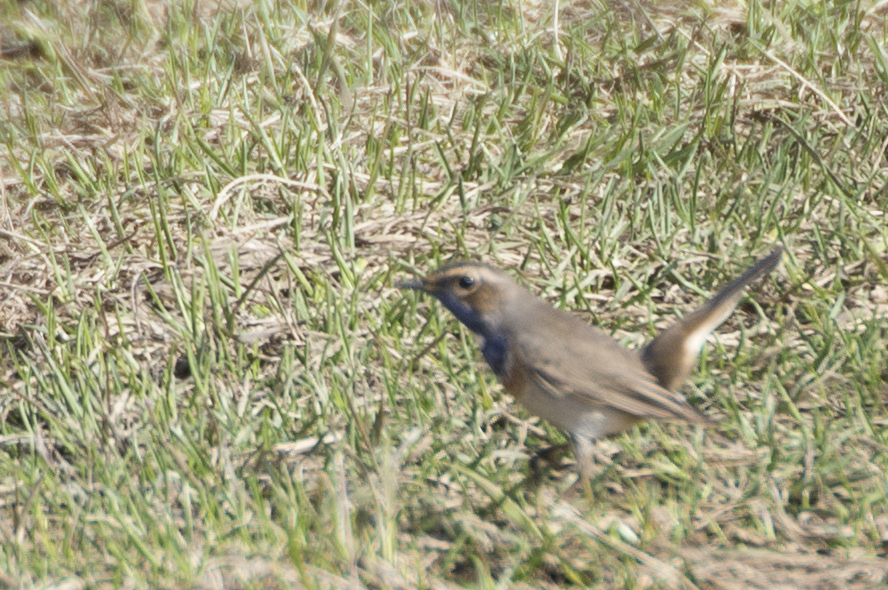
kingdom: Animalia
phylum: Chordata
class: Aves
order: Passeriformes
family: Muscicapidae
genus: Luscinia
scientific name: Luscinia svecica
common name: Bluethroat
